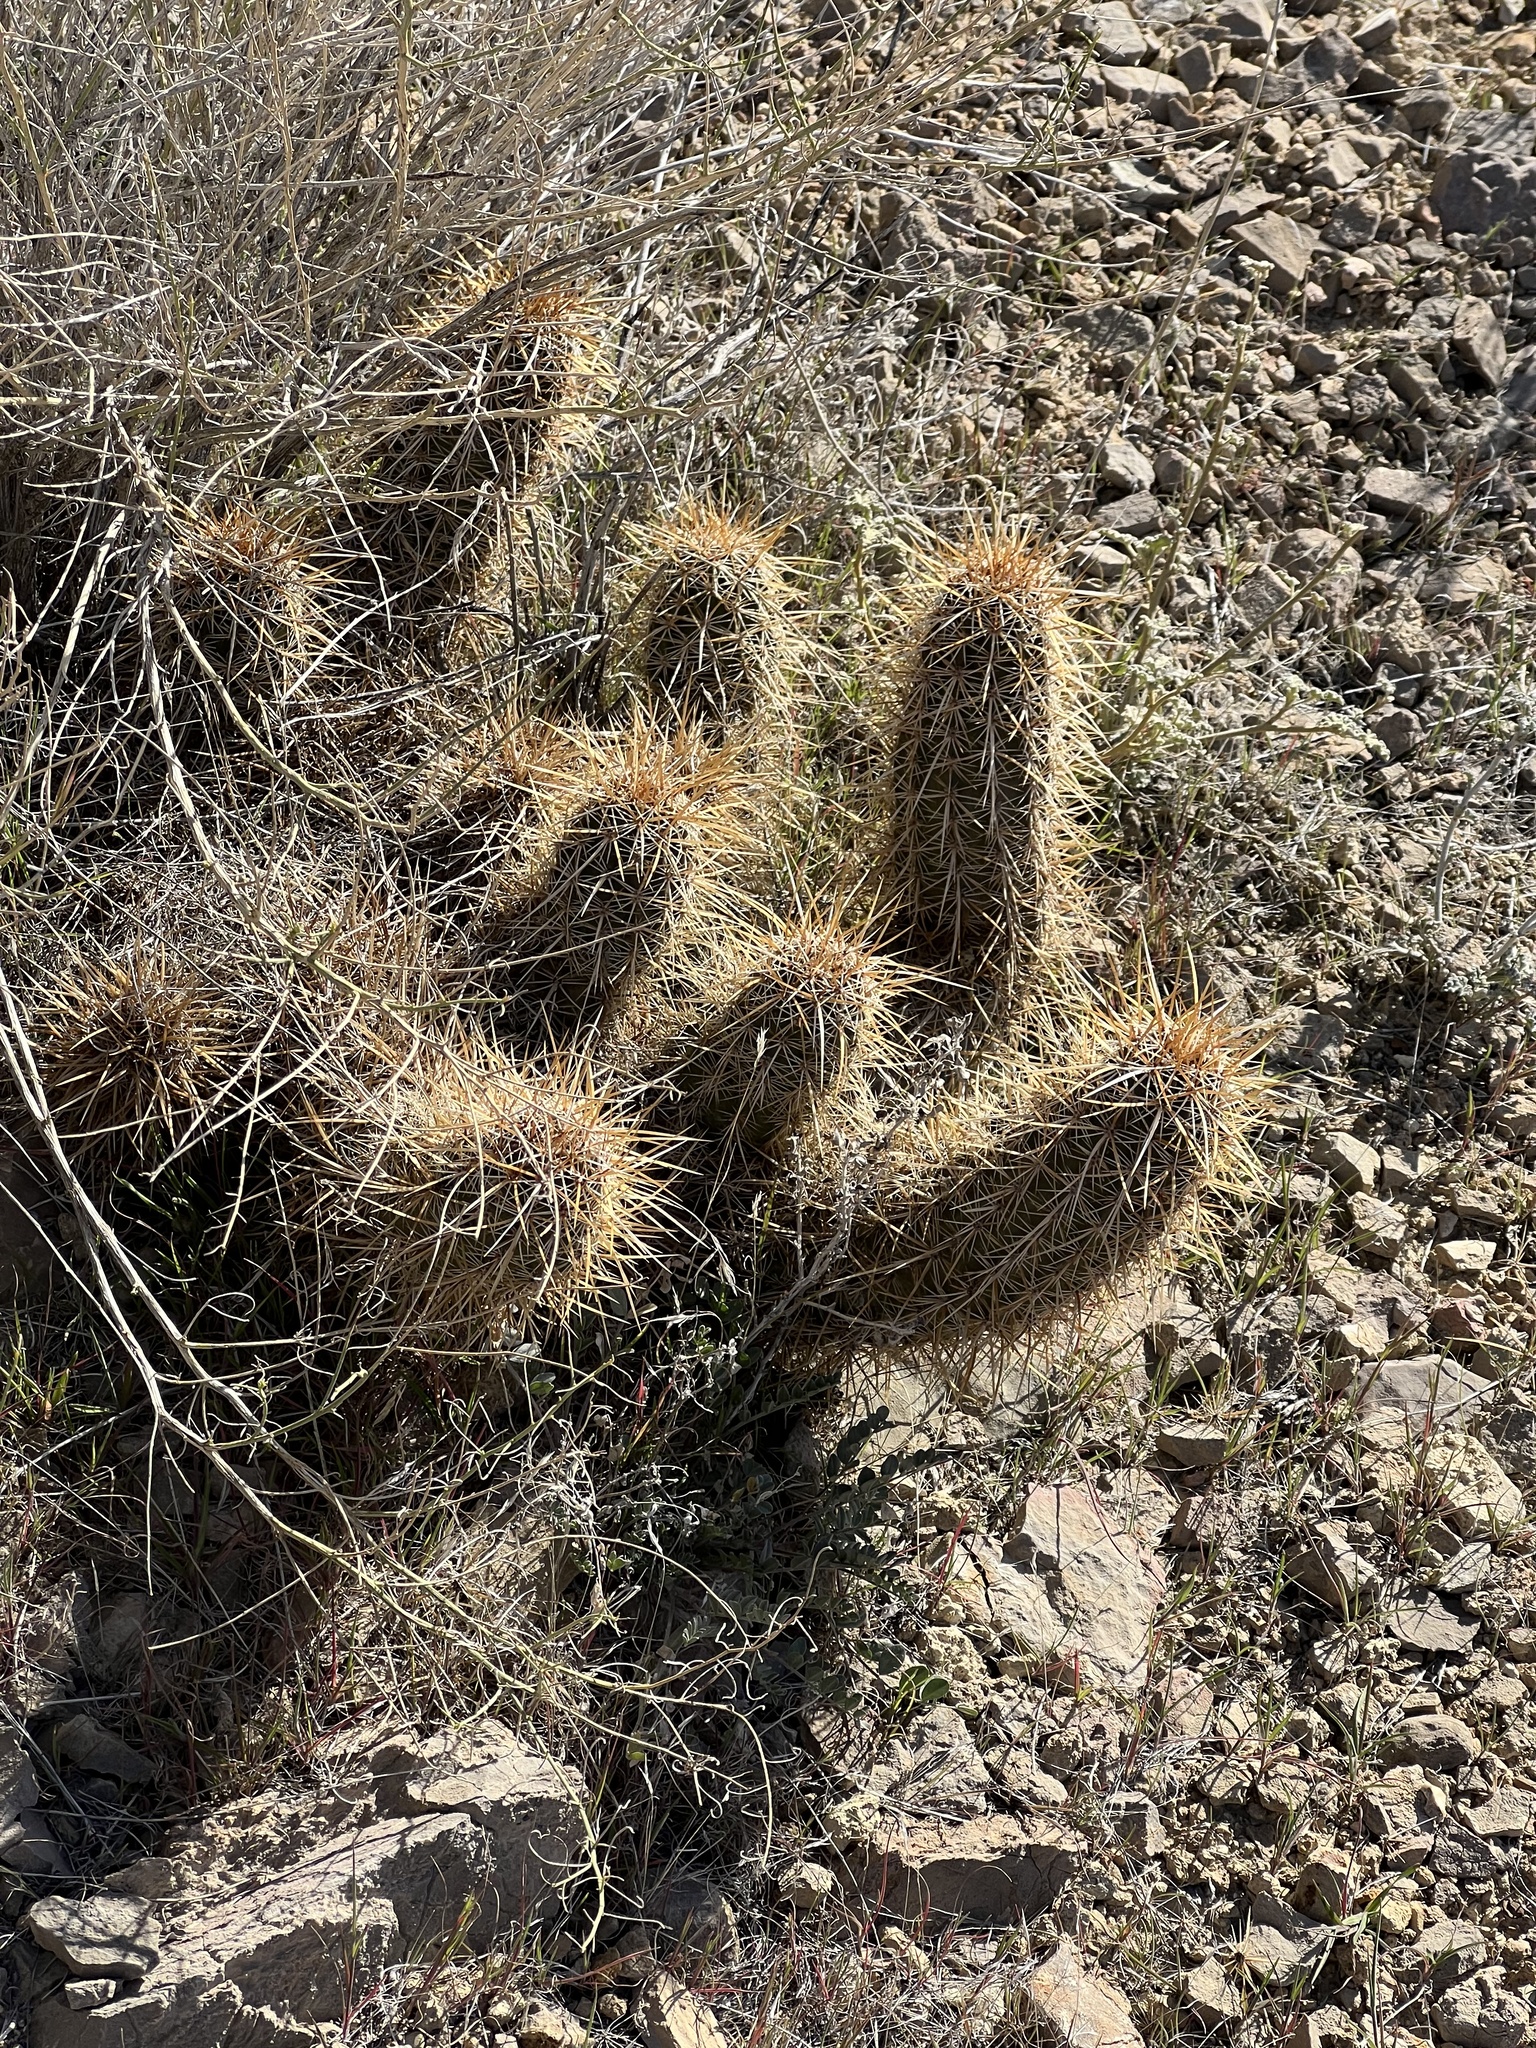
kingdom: Plantae
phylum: Tracheophyta
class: Magnoliopsida
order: Caryophyllales
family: Cactaceae
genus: Echinocereus
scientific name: Echinocereus engelmannii
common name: Engelmann's hedgehog cactus
